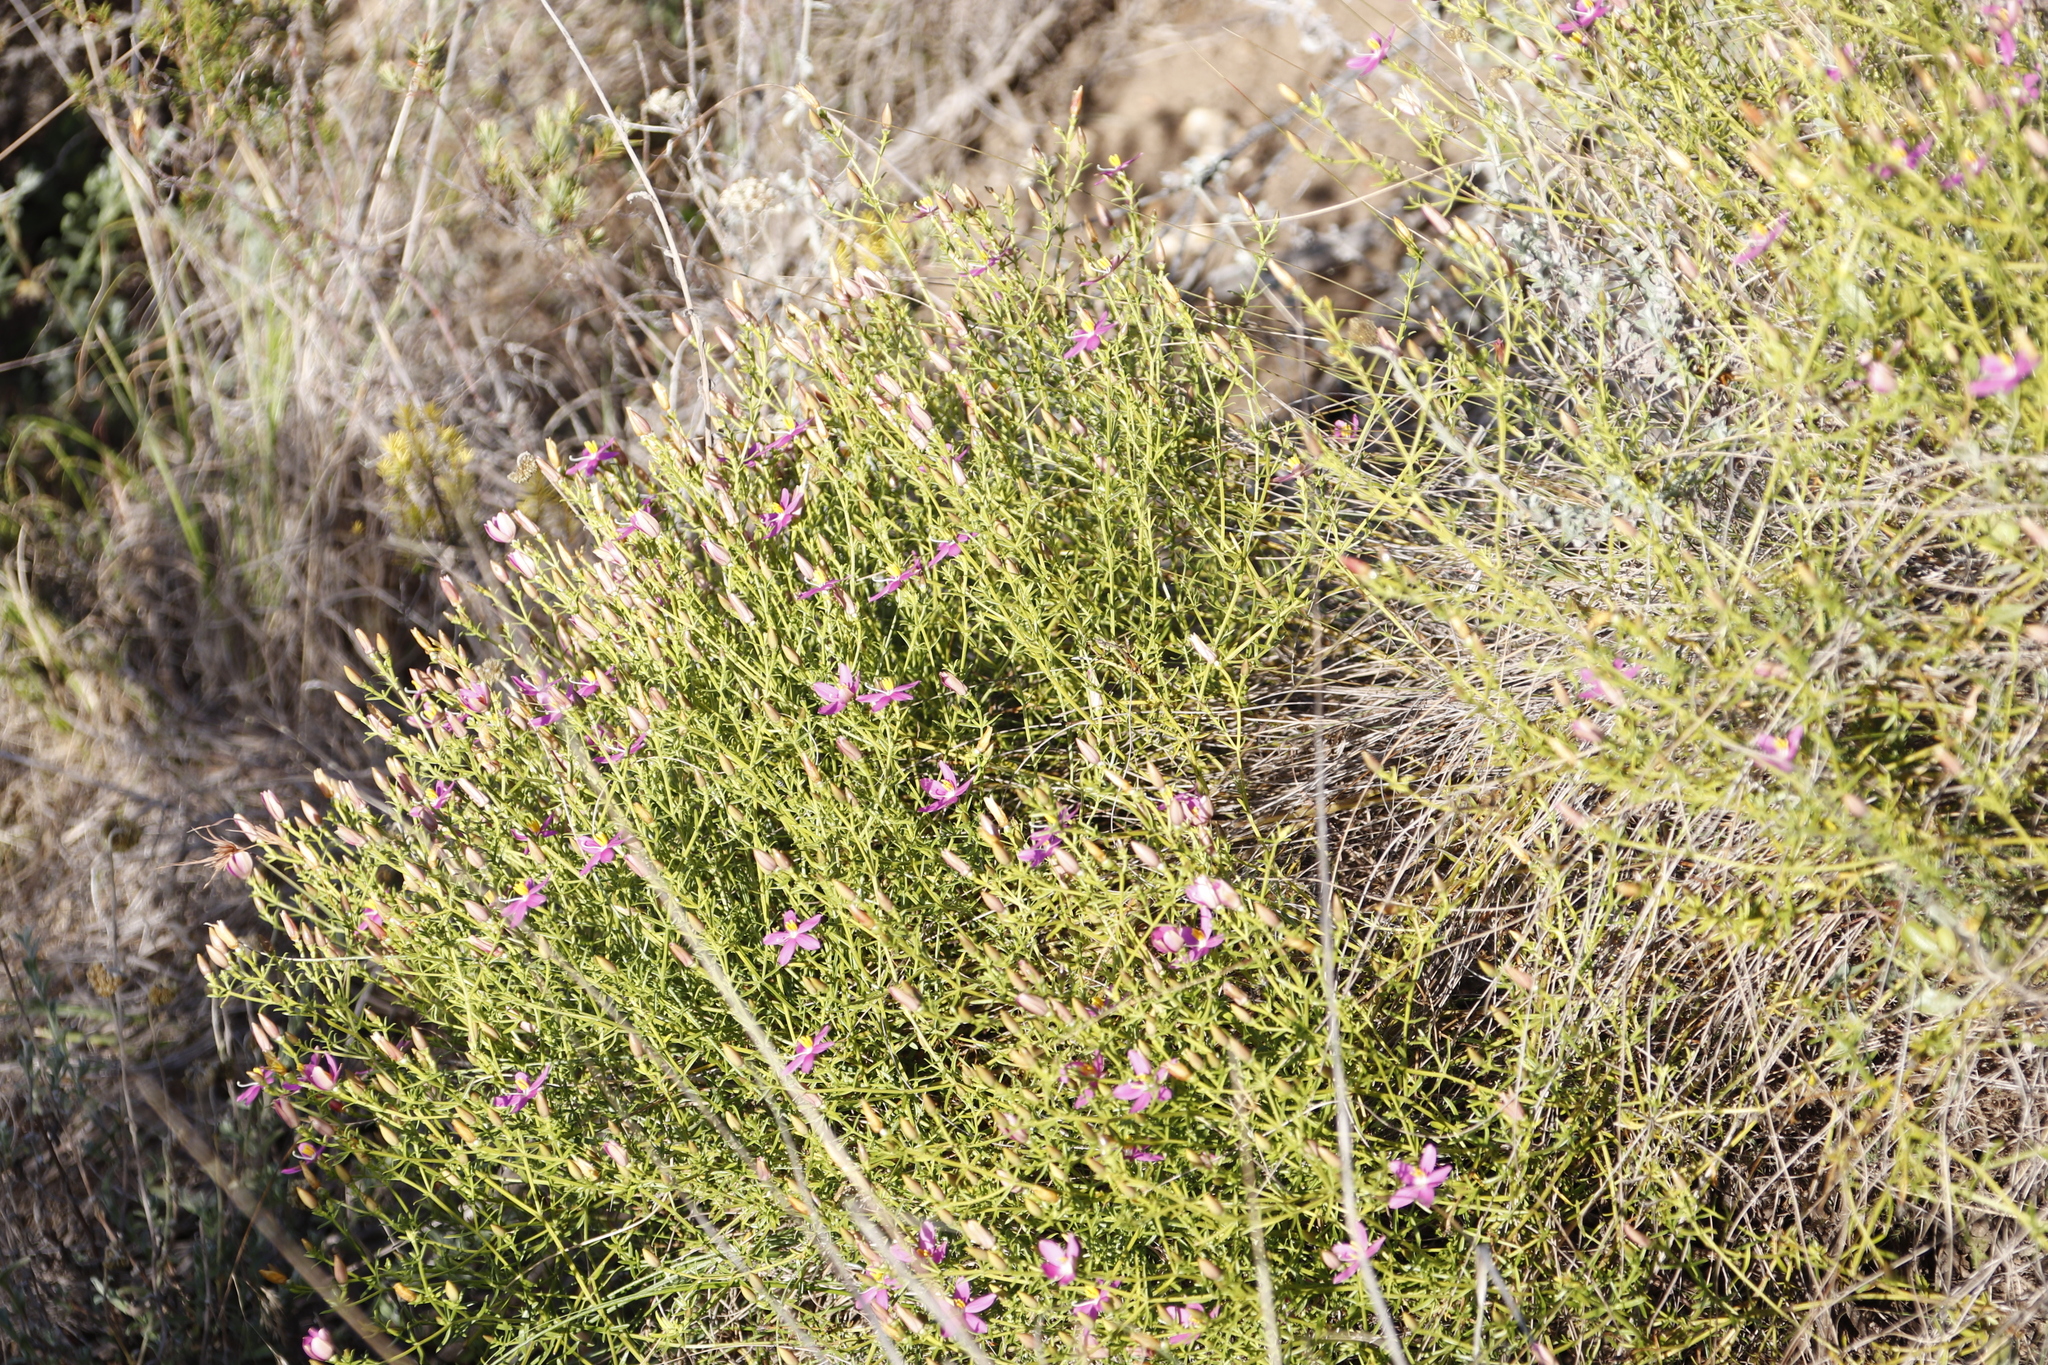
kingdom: Plantae
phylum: Tracheophyta
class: Magnoliopsida
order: Gentianales
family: Gentianaceae
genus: Chironia
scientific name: Chironia baccifera
